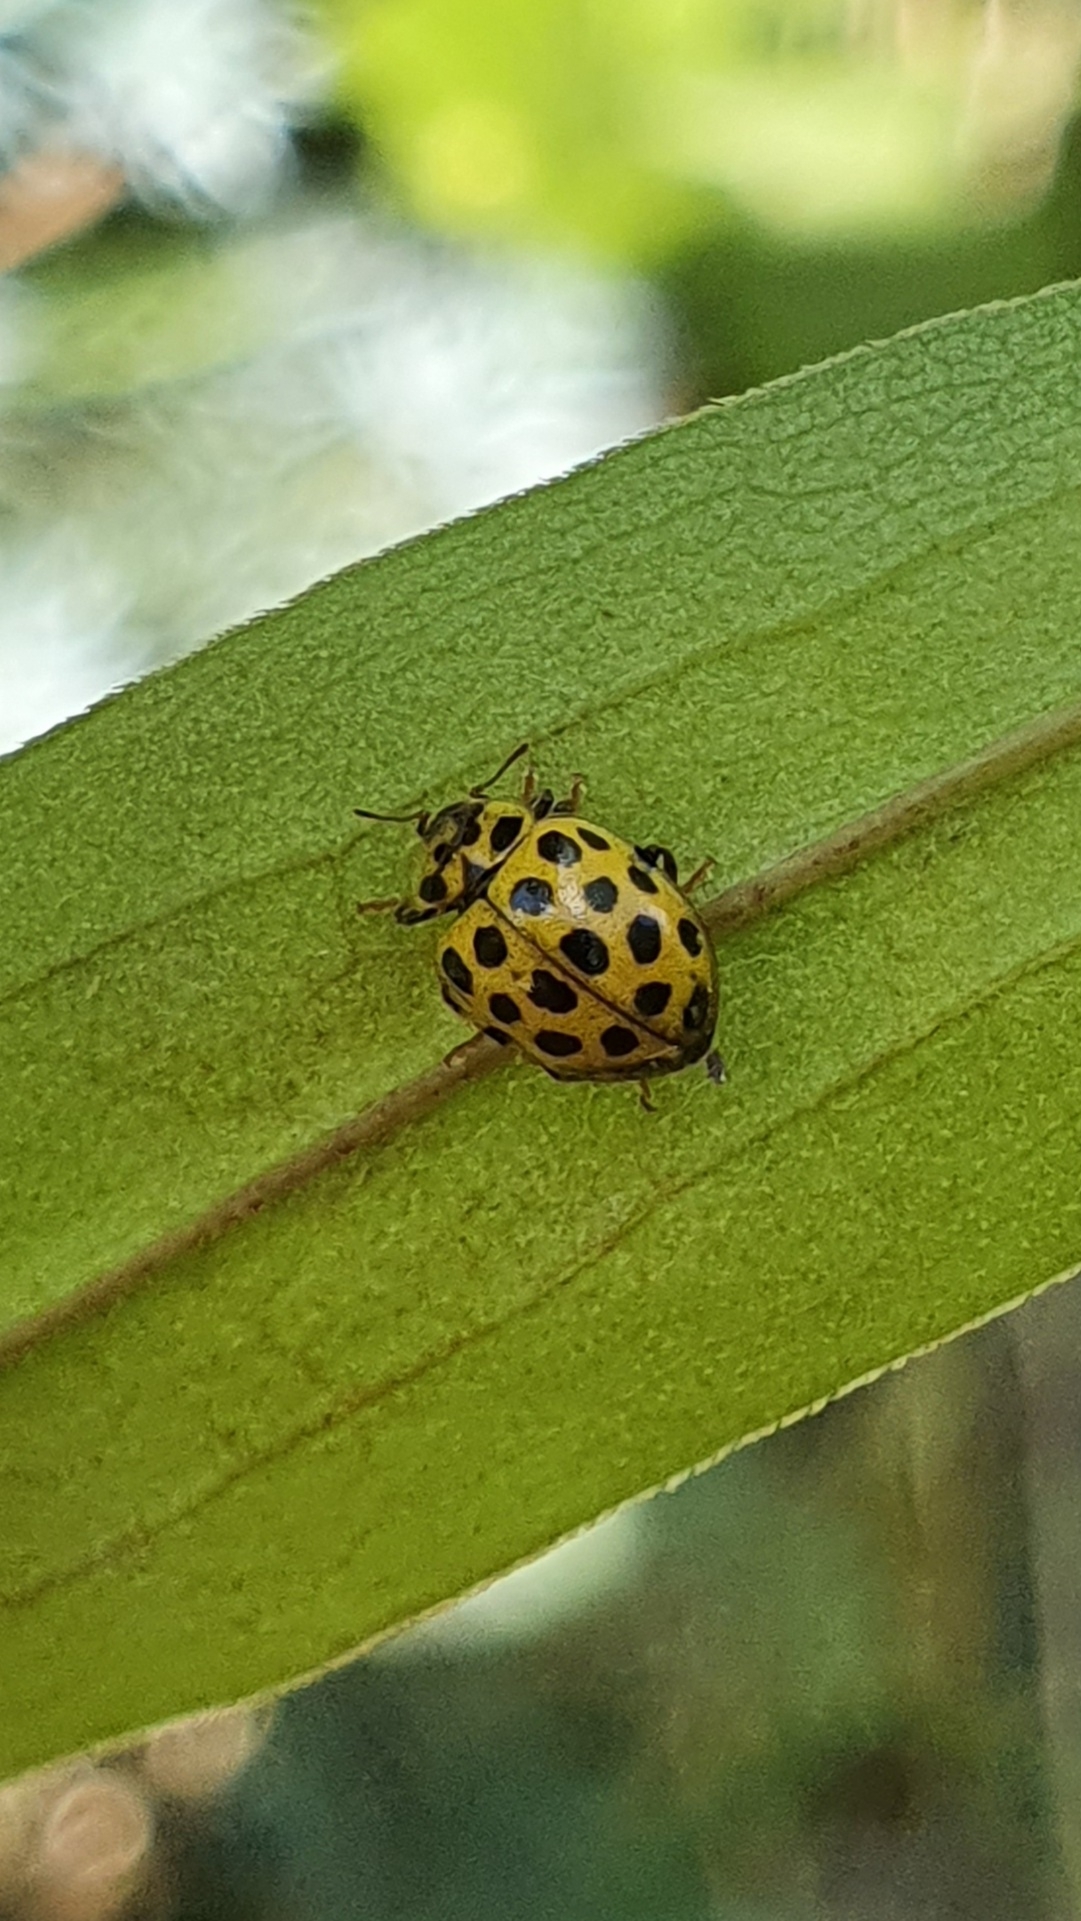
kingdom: Animalia
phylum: Arthropoda
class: Insecta
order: Coleoptera
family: Coccinellidae
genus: Psyllobora
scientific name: Psyllobora vigintiduopunctata
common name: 22-spot ladybird
